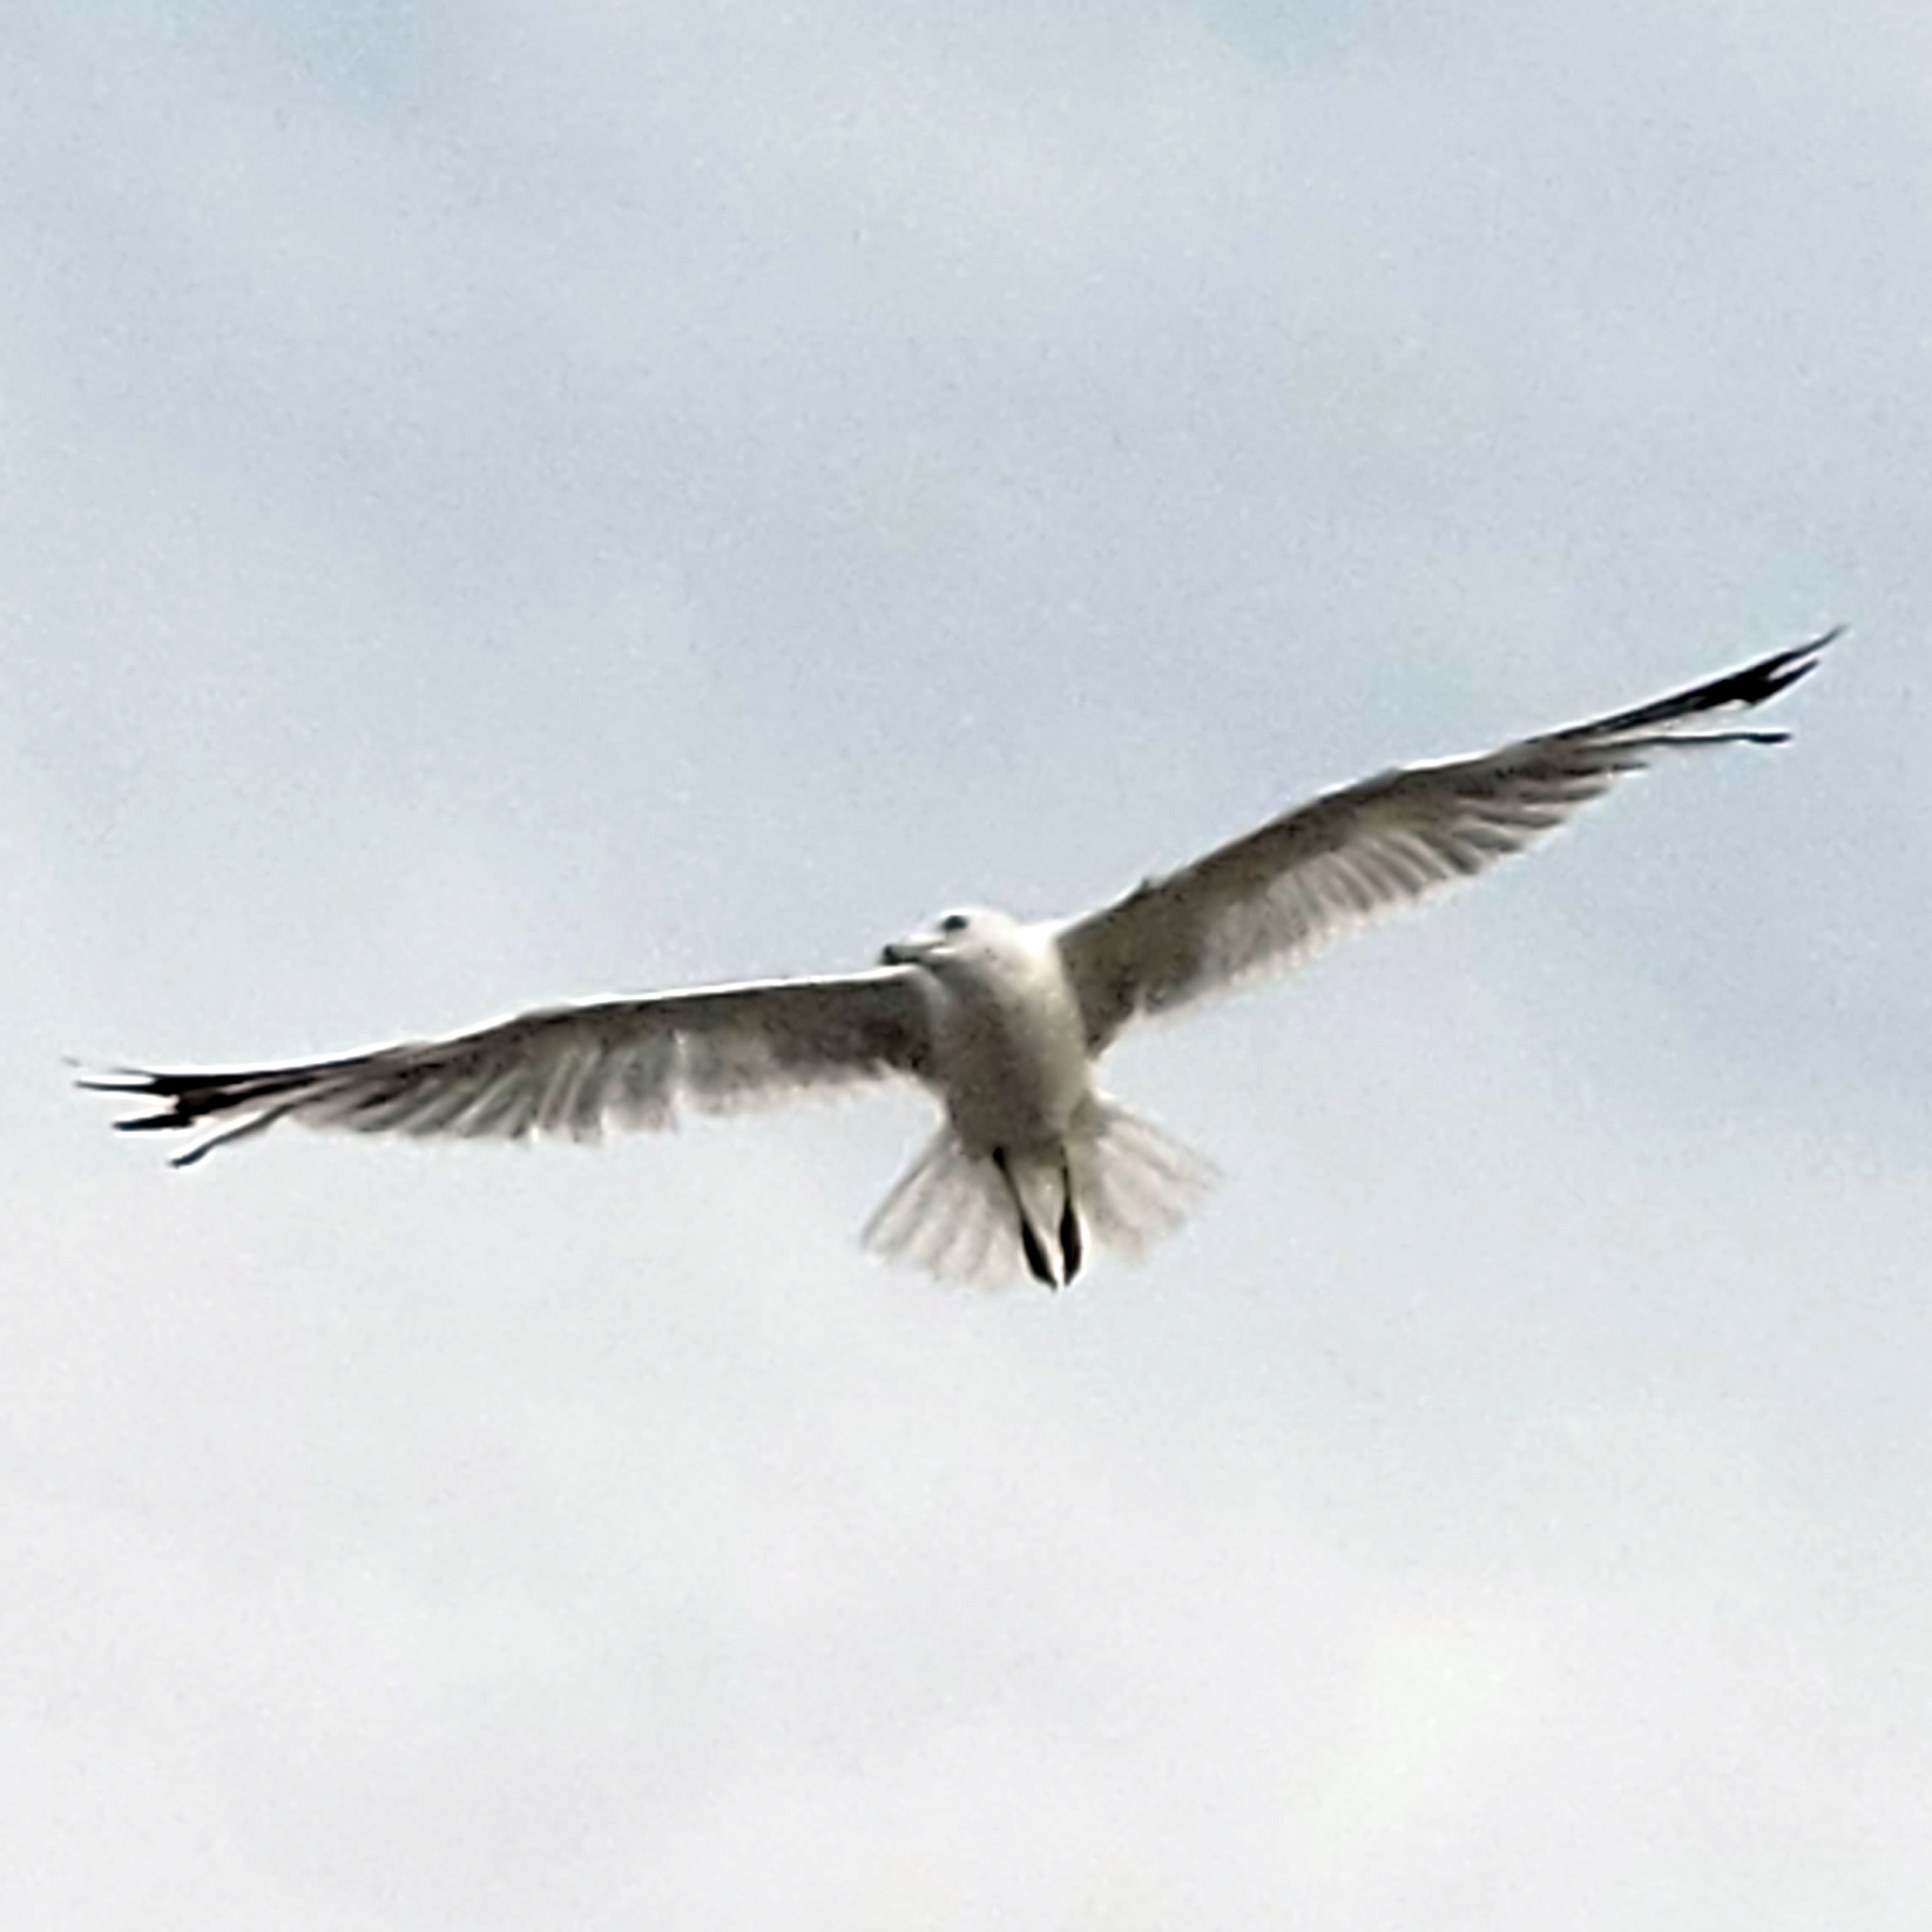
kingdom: Animalia
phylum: Chordata
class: Aves
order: Charadriiformes
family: Laridae
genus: Larus
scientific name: Larus delawarensis
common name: Ring-billed gull
